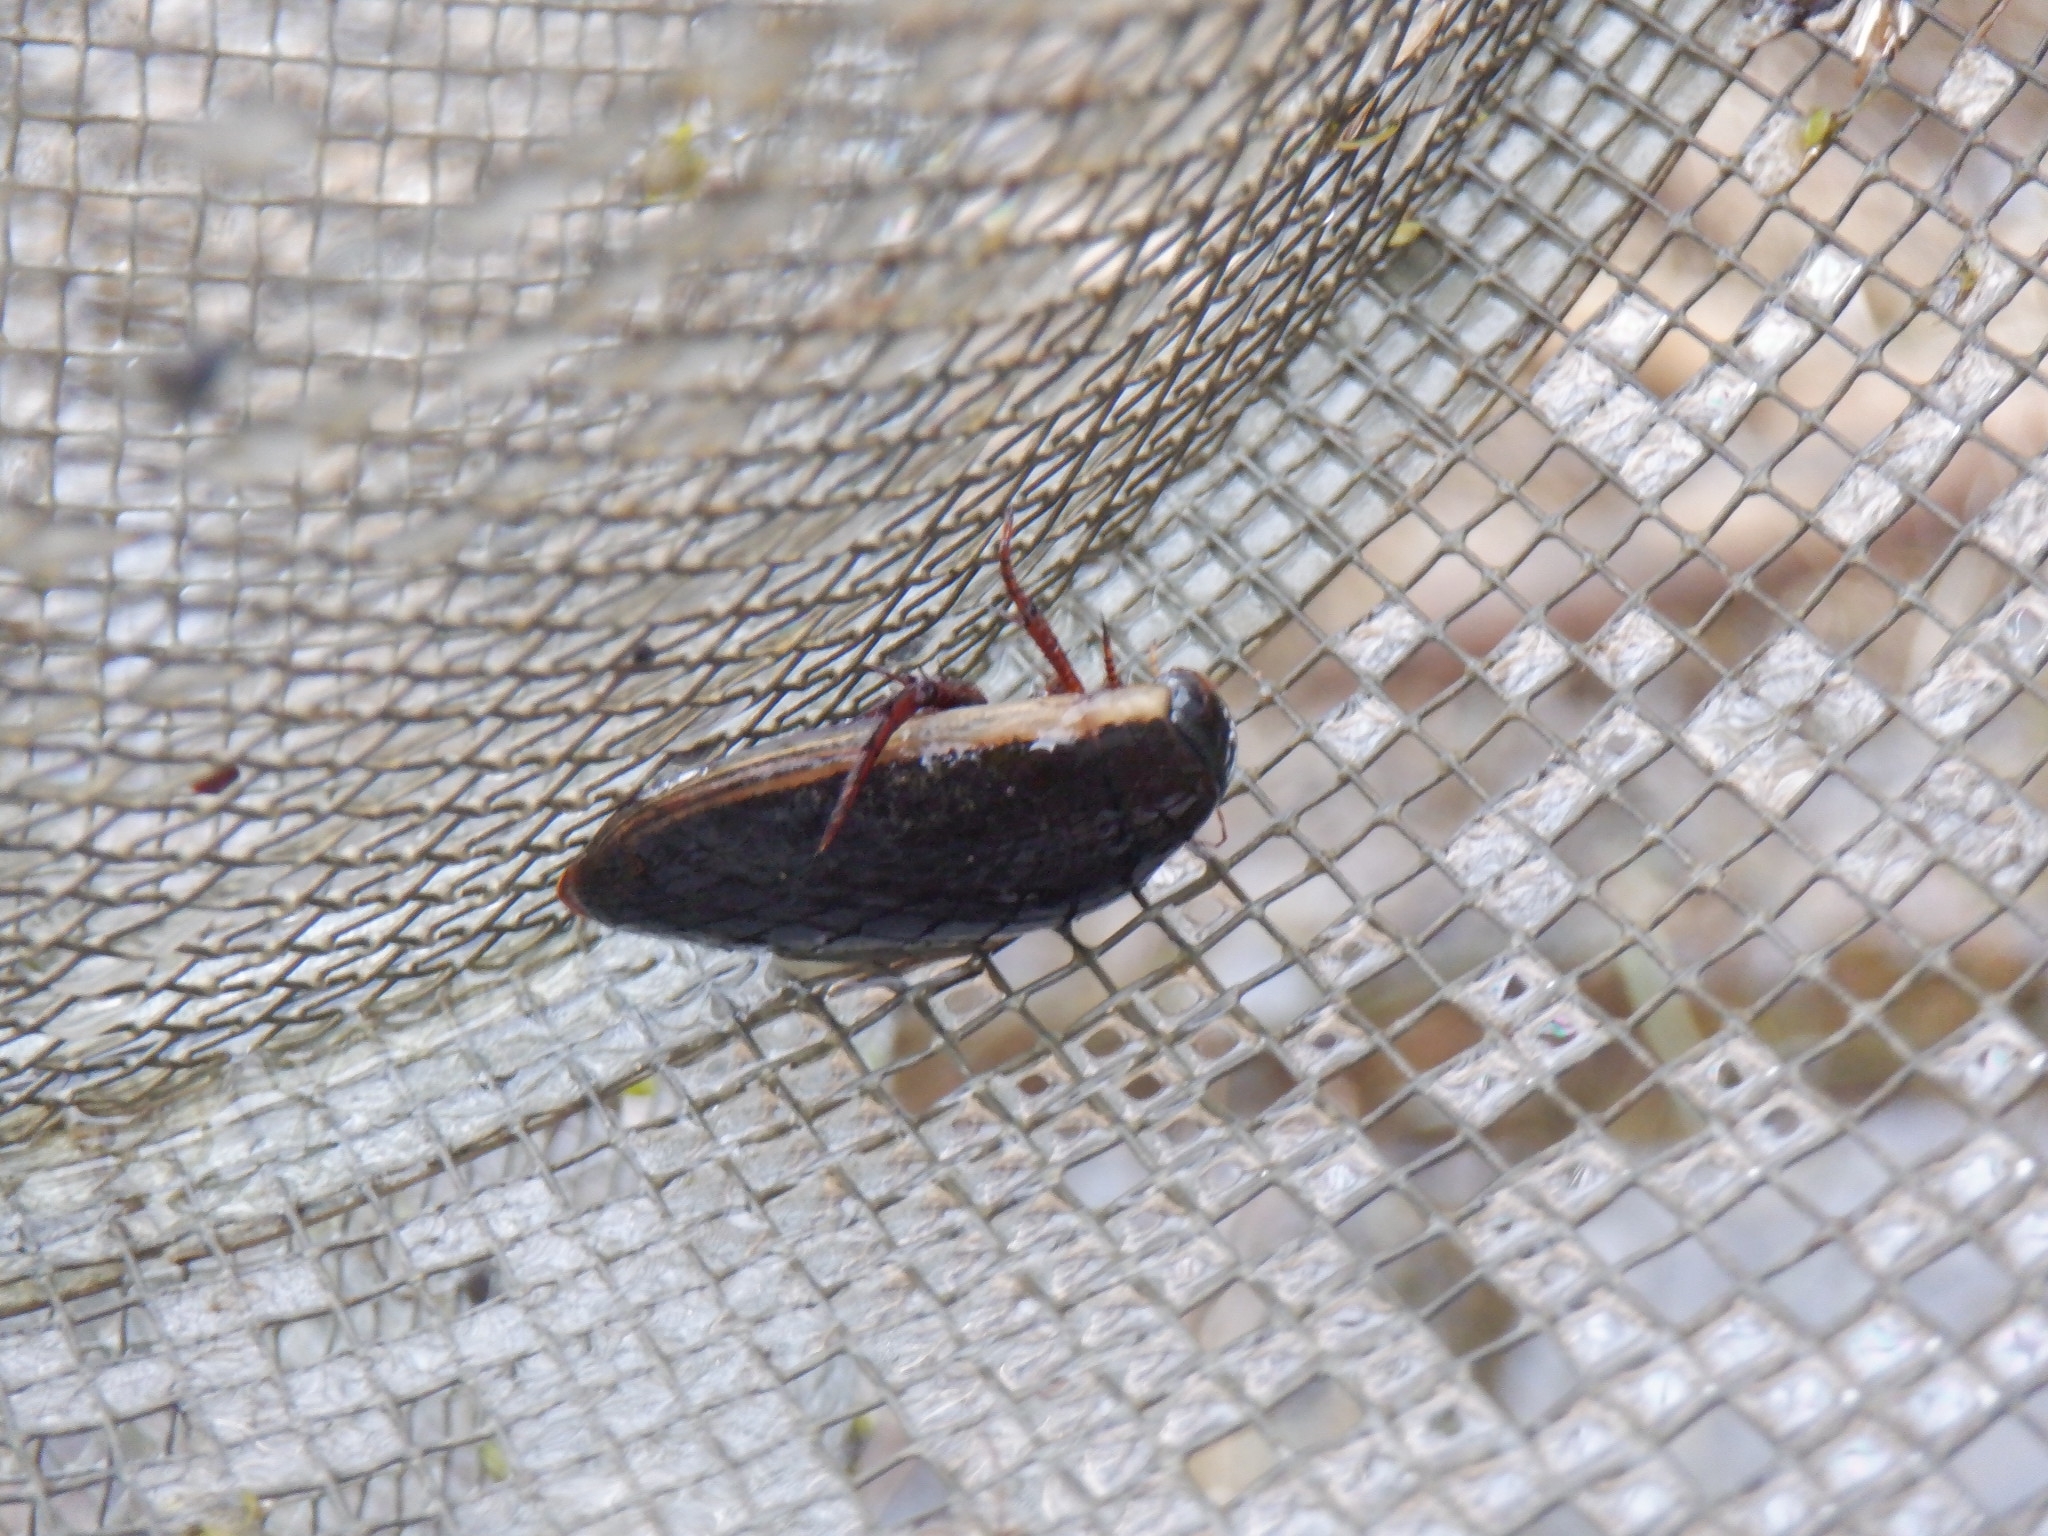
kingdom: Animalia
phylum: Arthropoda
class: Insecta
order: Coleoptera
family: Dytiscidae
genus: Dytiscus
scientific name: Dytiscus
